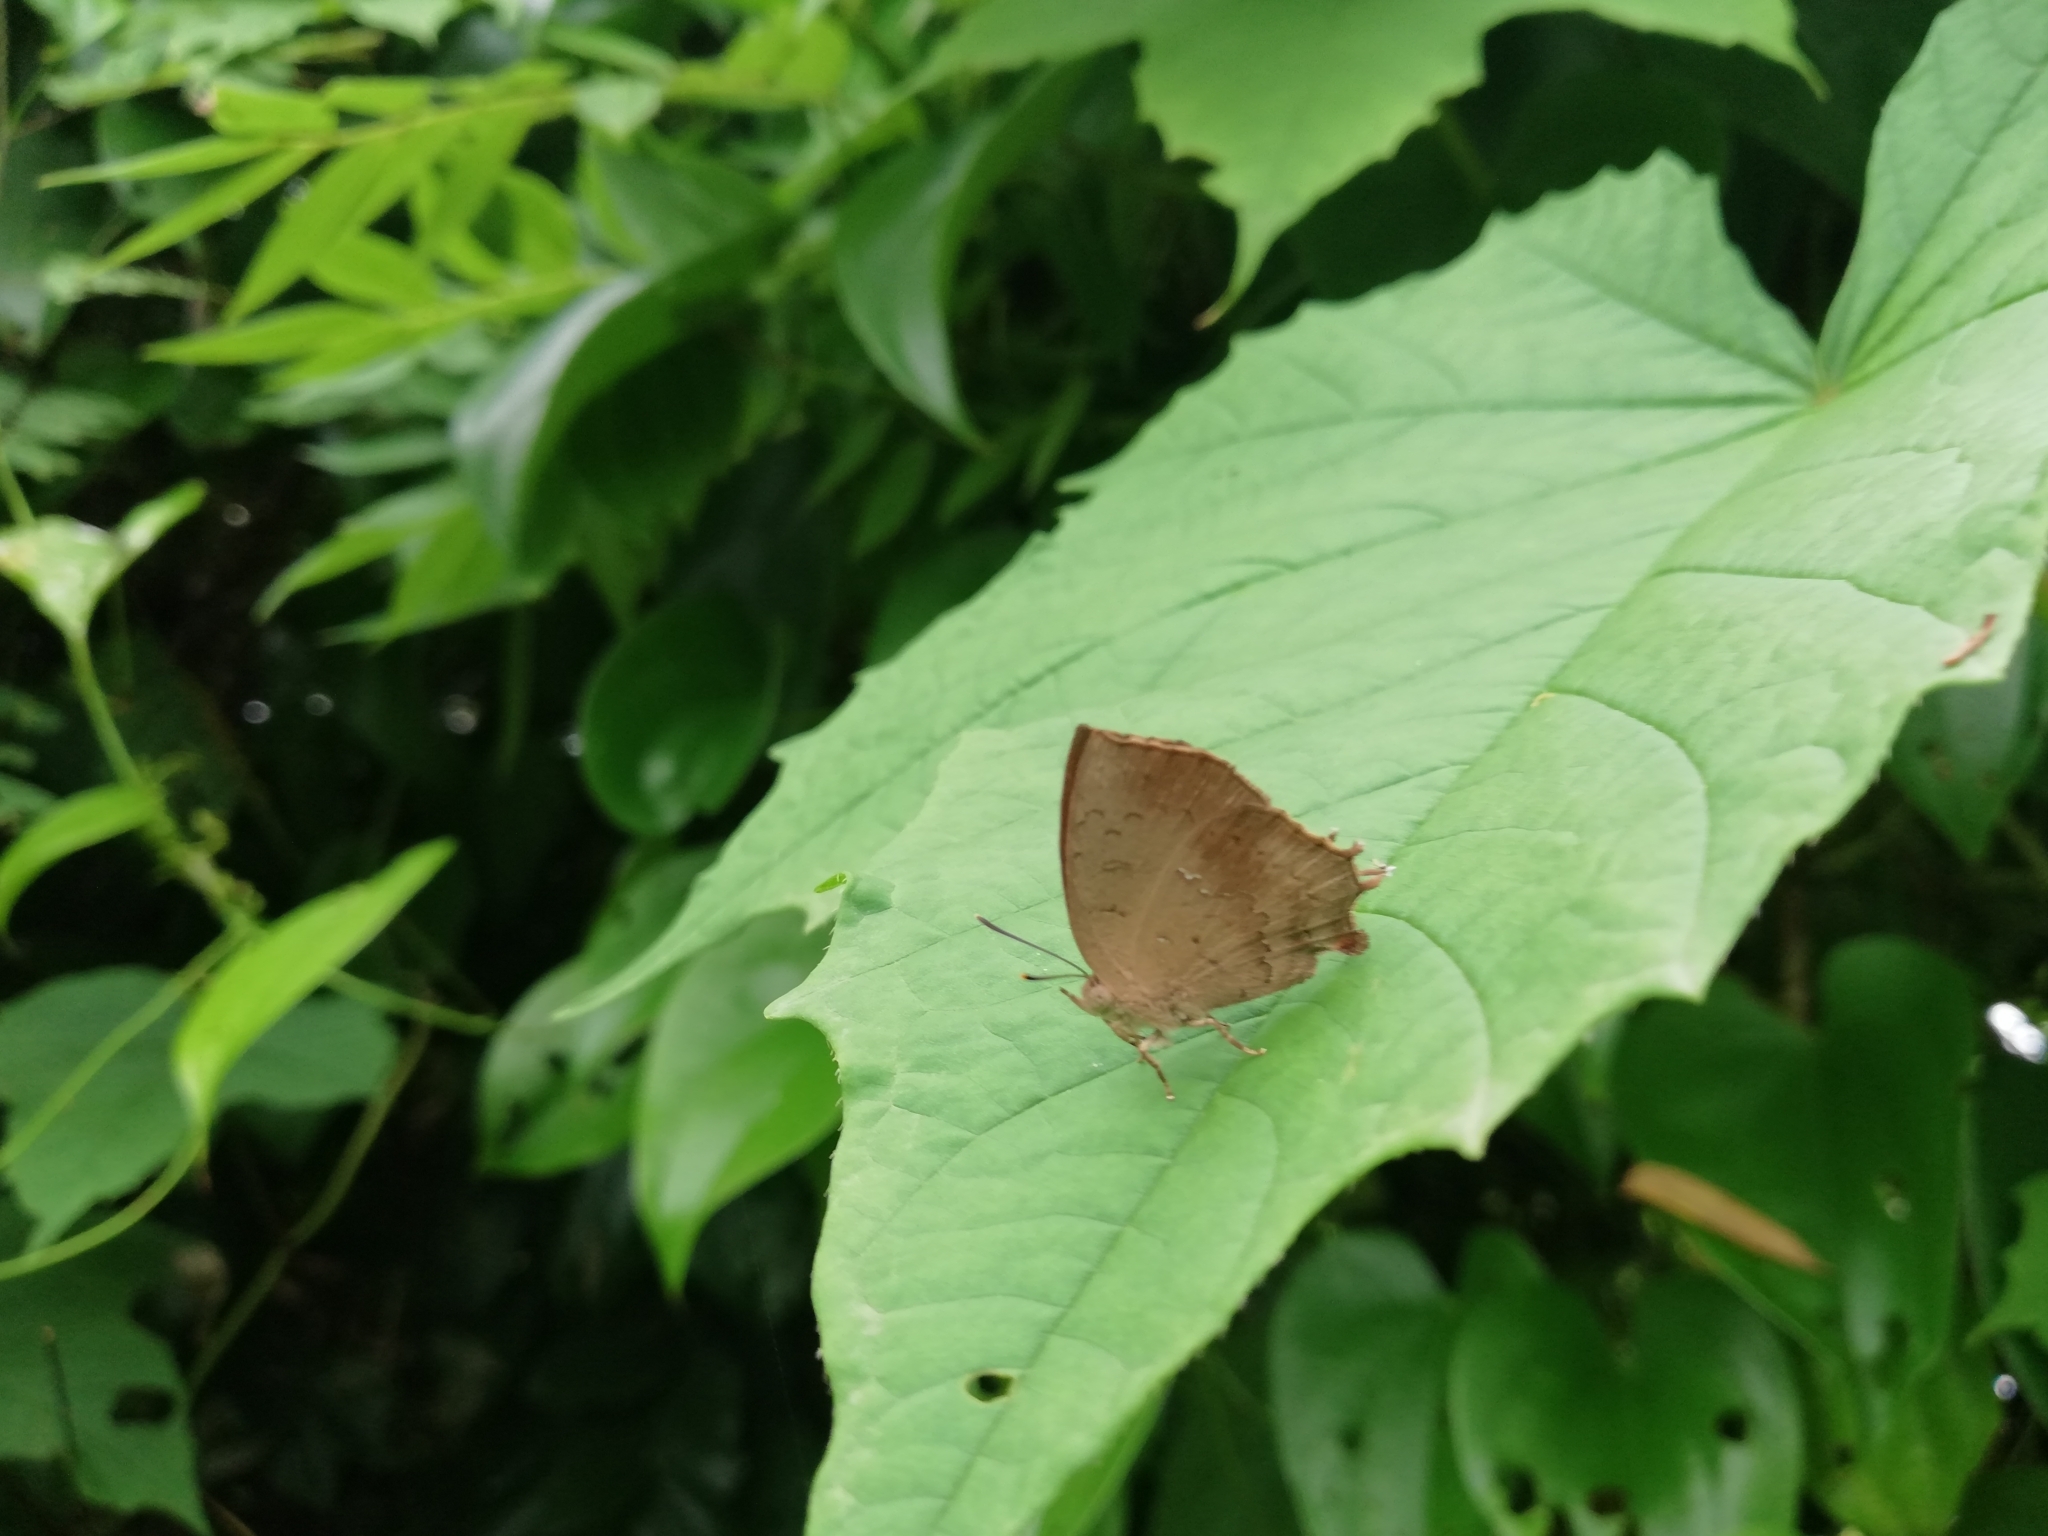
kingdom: Animalia
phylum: Arthropoda
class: Insecta
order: Lepidoptera
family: Lycaenidae
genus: Surendra
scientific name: Surendra quercetorum
